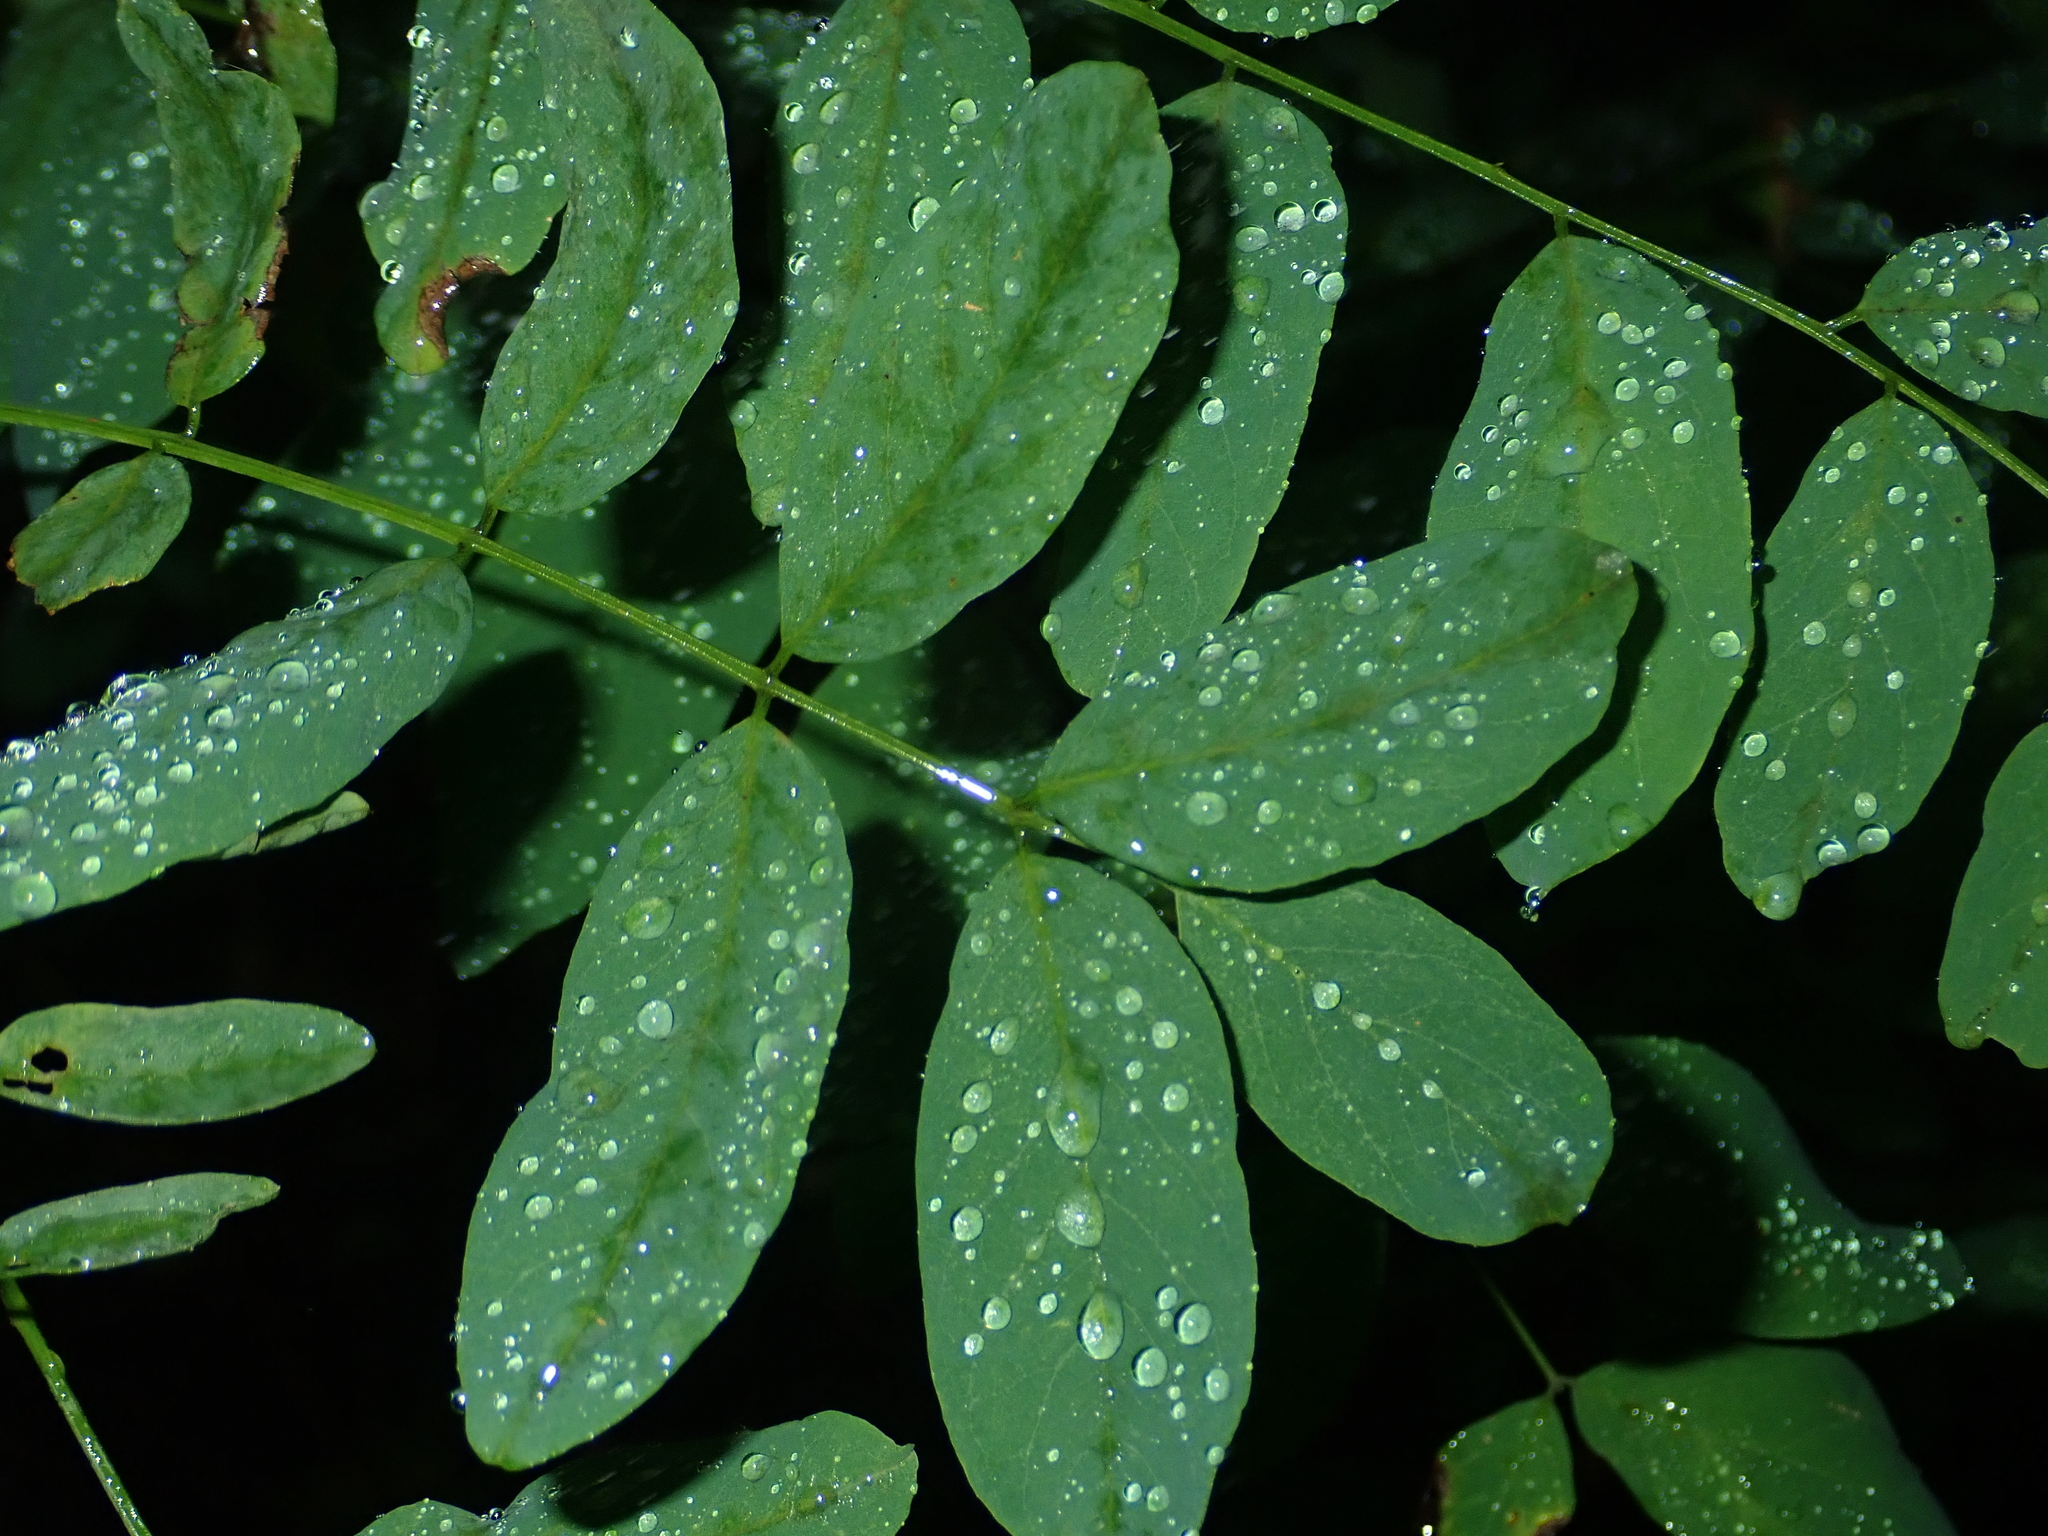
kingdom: Plantae
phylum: Tracheophyta
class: Magnoliopsida
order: Fabales
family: Fabaceae
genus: Robinia
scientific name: Robinia pseudoacacia
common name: Black locust
